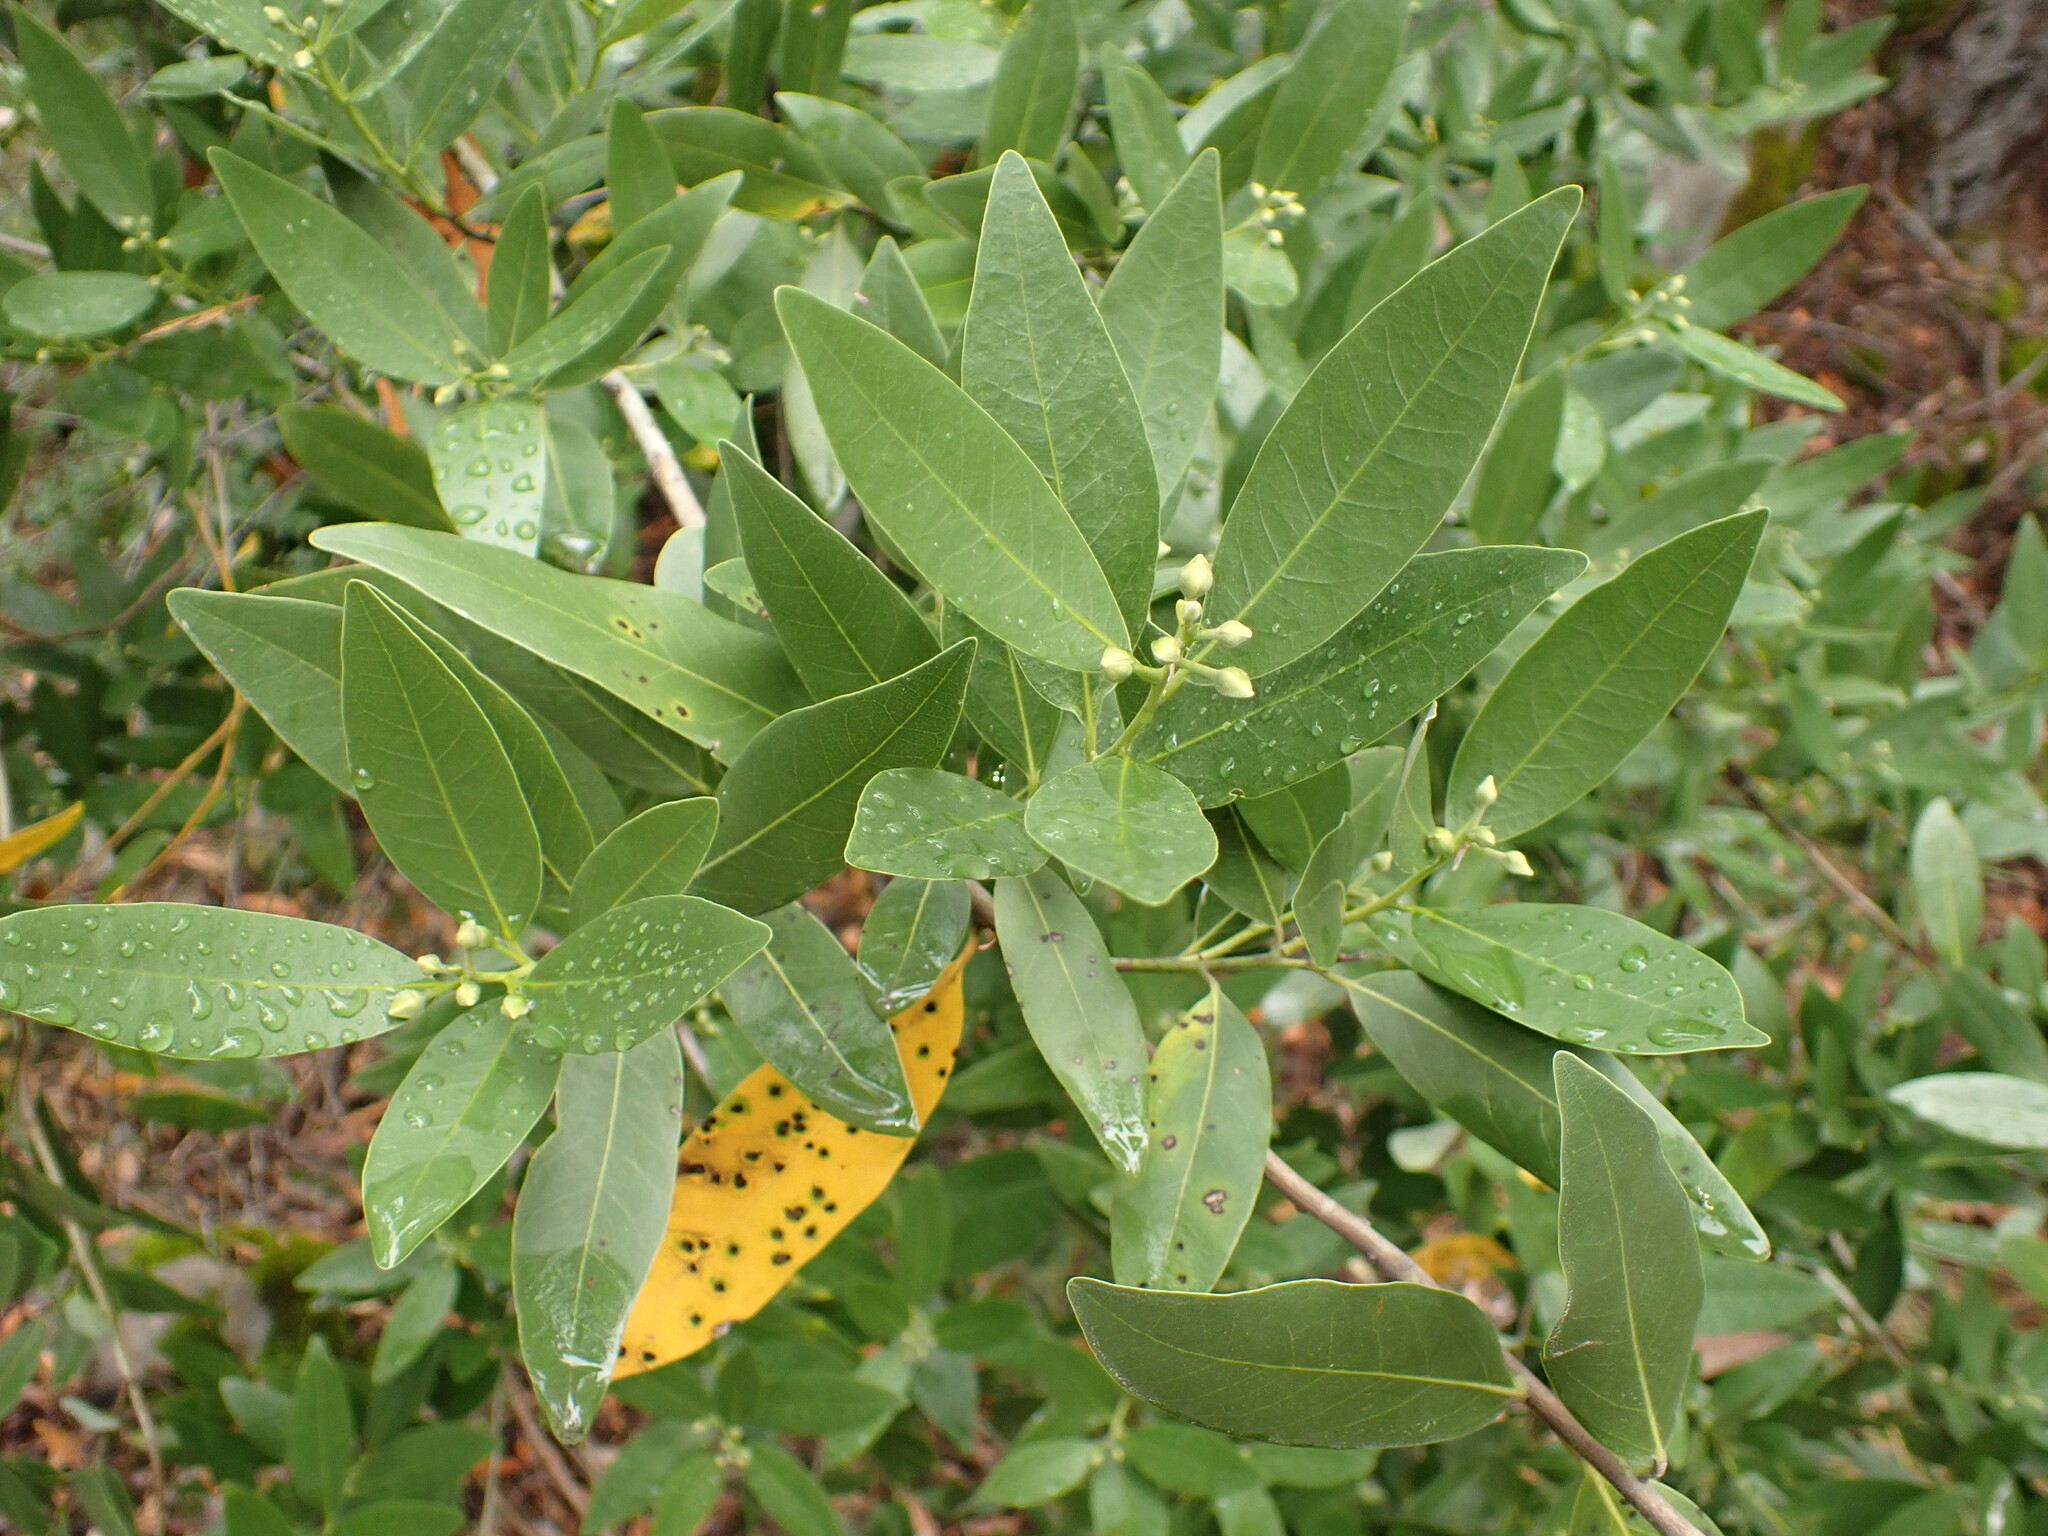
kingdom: Plantae
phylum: Tracheophyta
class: Magnoliopsida
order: Laurales
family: Lauraceae
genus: Umbellularia
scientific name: Umbellularia californica
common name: California bay
